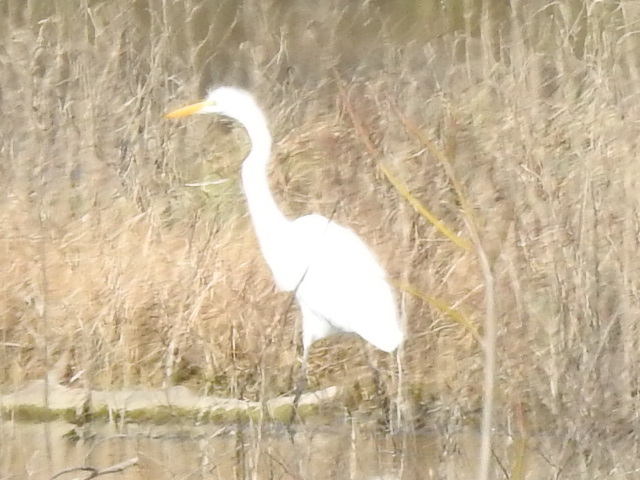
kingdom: Animalia
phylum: Chordata
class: Aves
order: Pelecaniformes
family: Ardeidae
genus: Ardea
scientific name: Ardea alba
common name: Great egret
